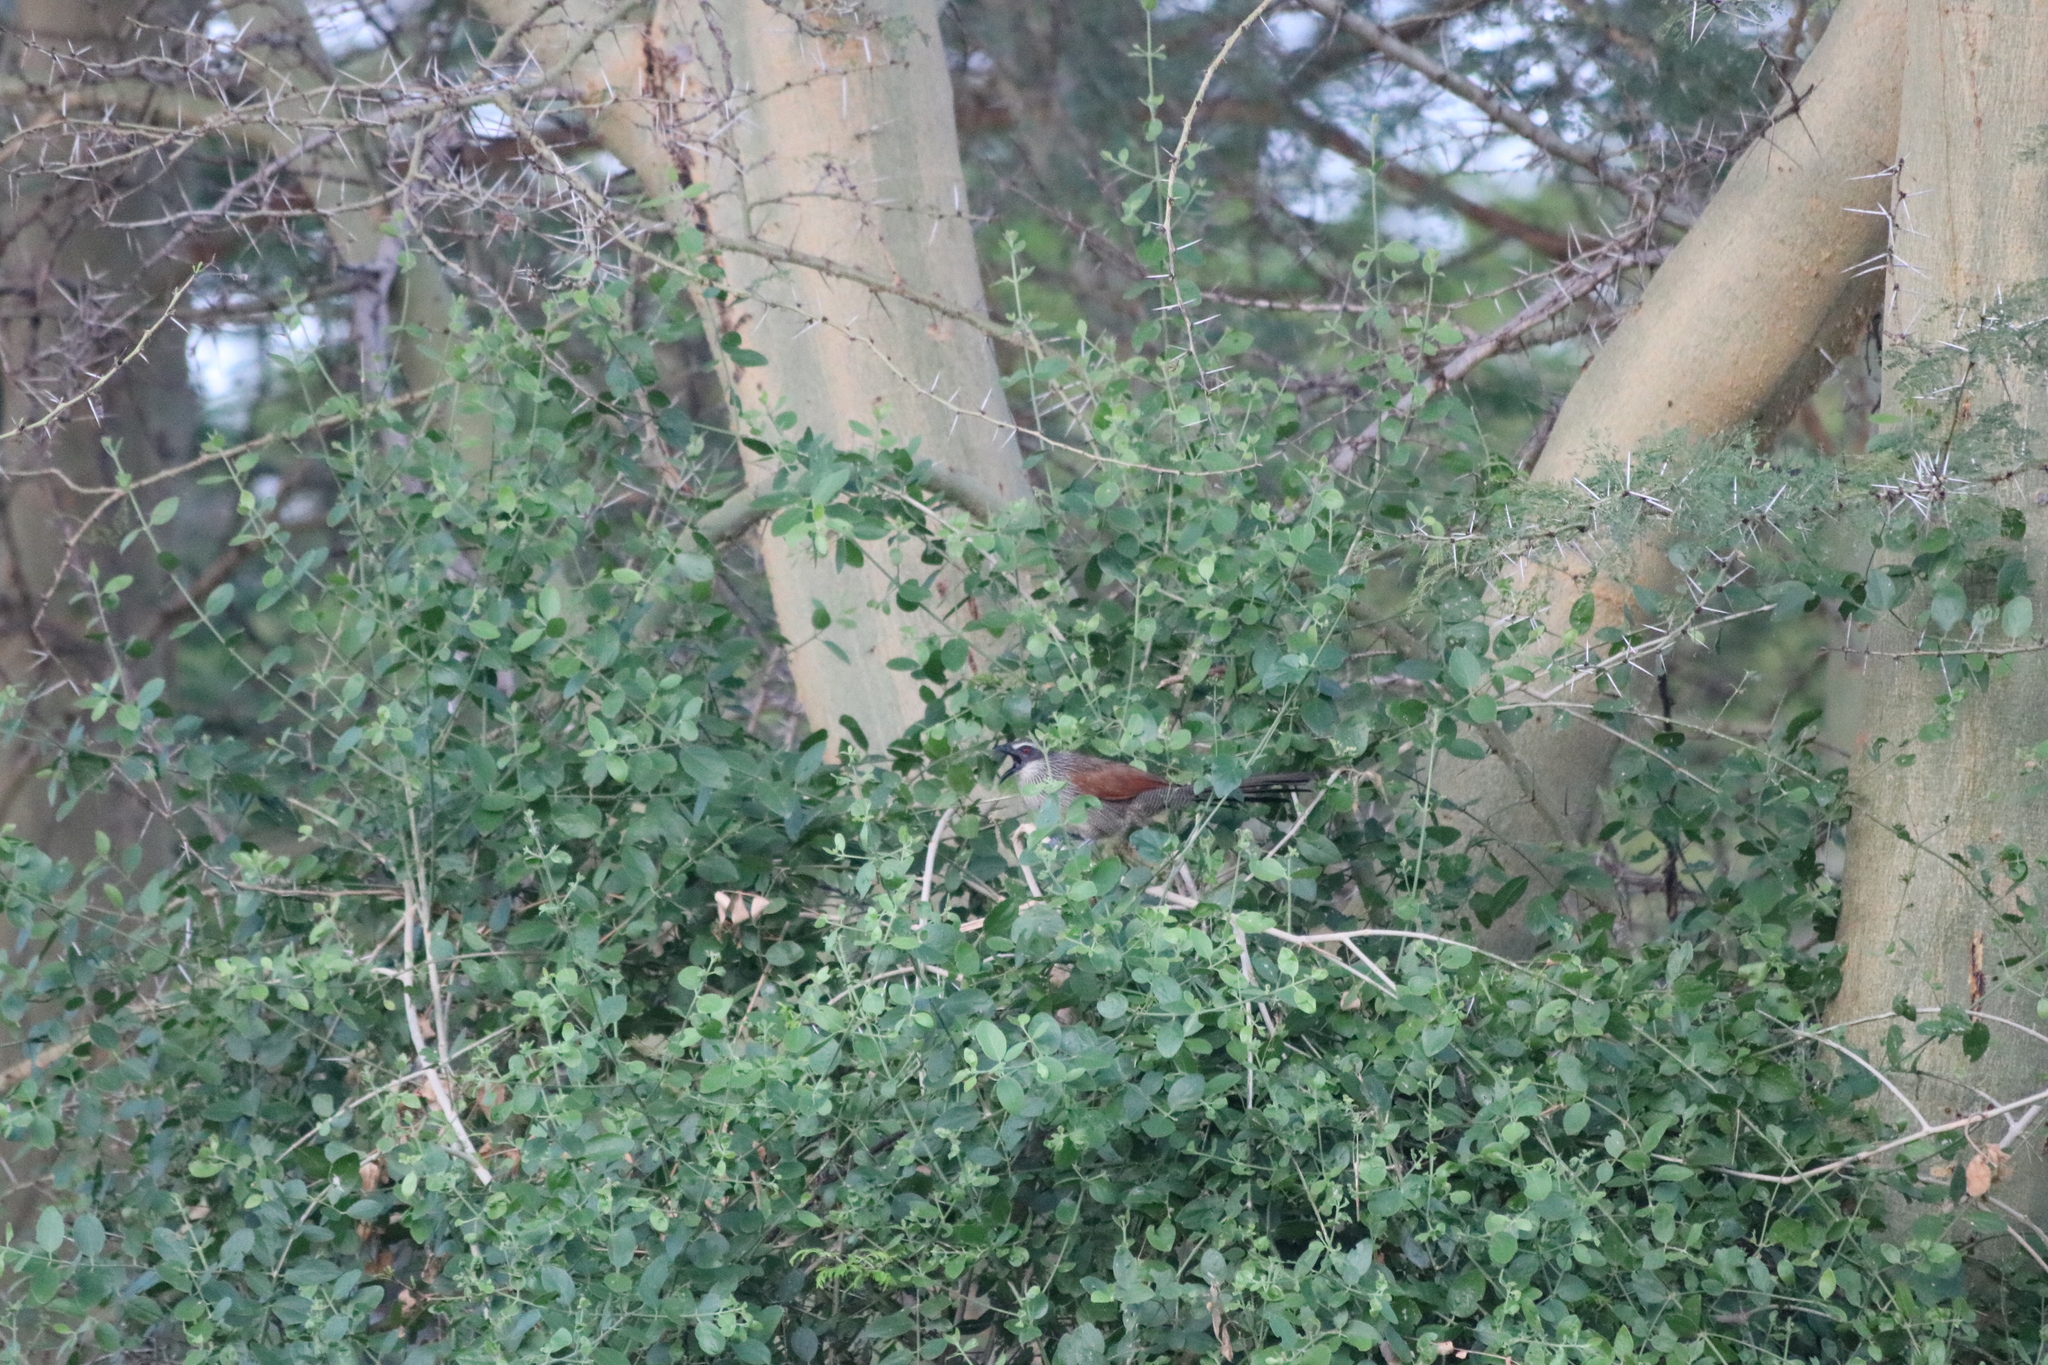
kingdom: Animalia
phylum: Chordata
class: Aves
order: Cuculiformes
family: Cuculidae
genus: Centropus
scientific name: Centropus superciliosus
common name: White-browed coucal
